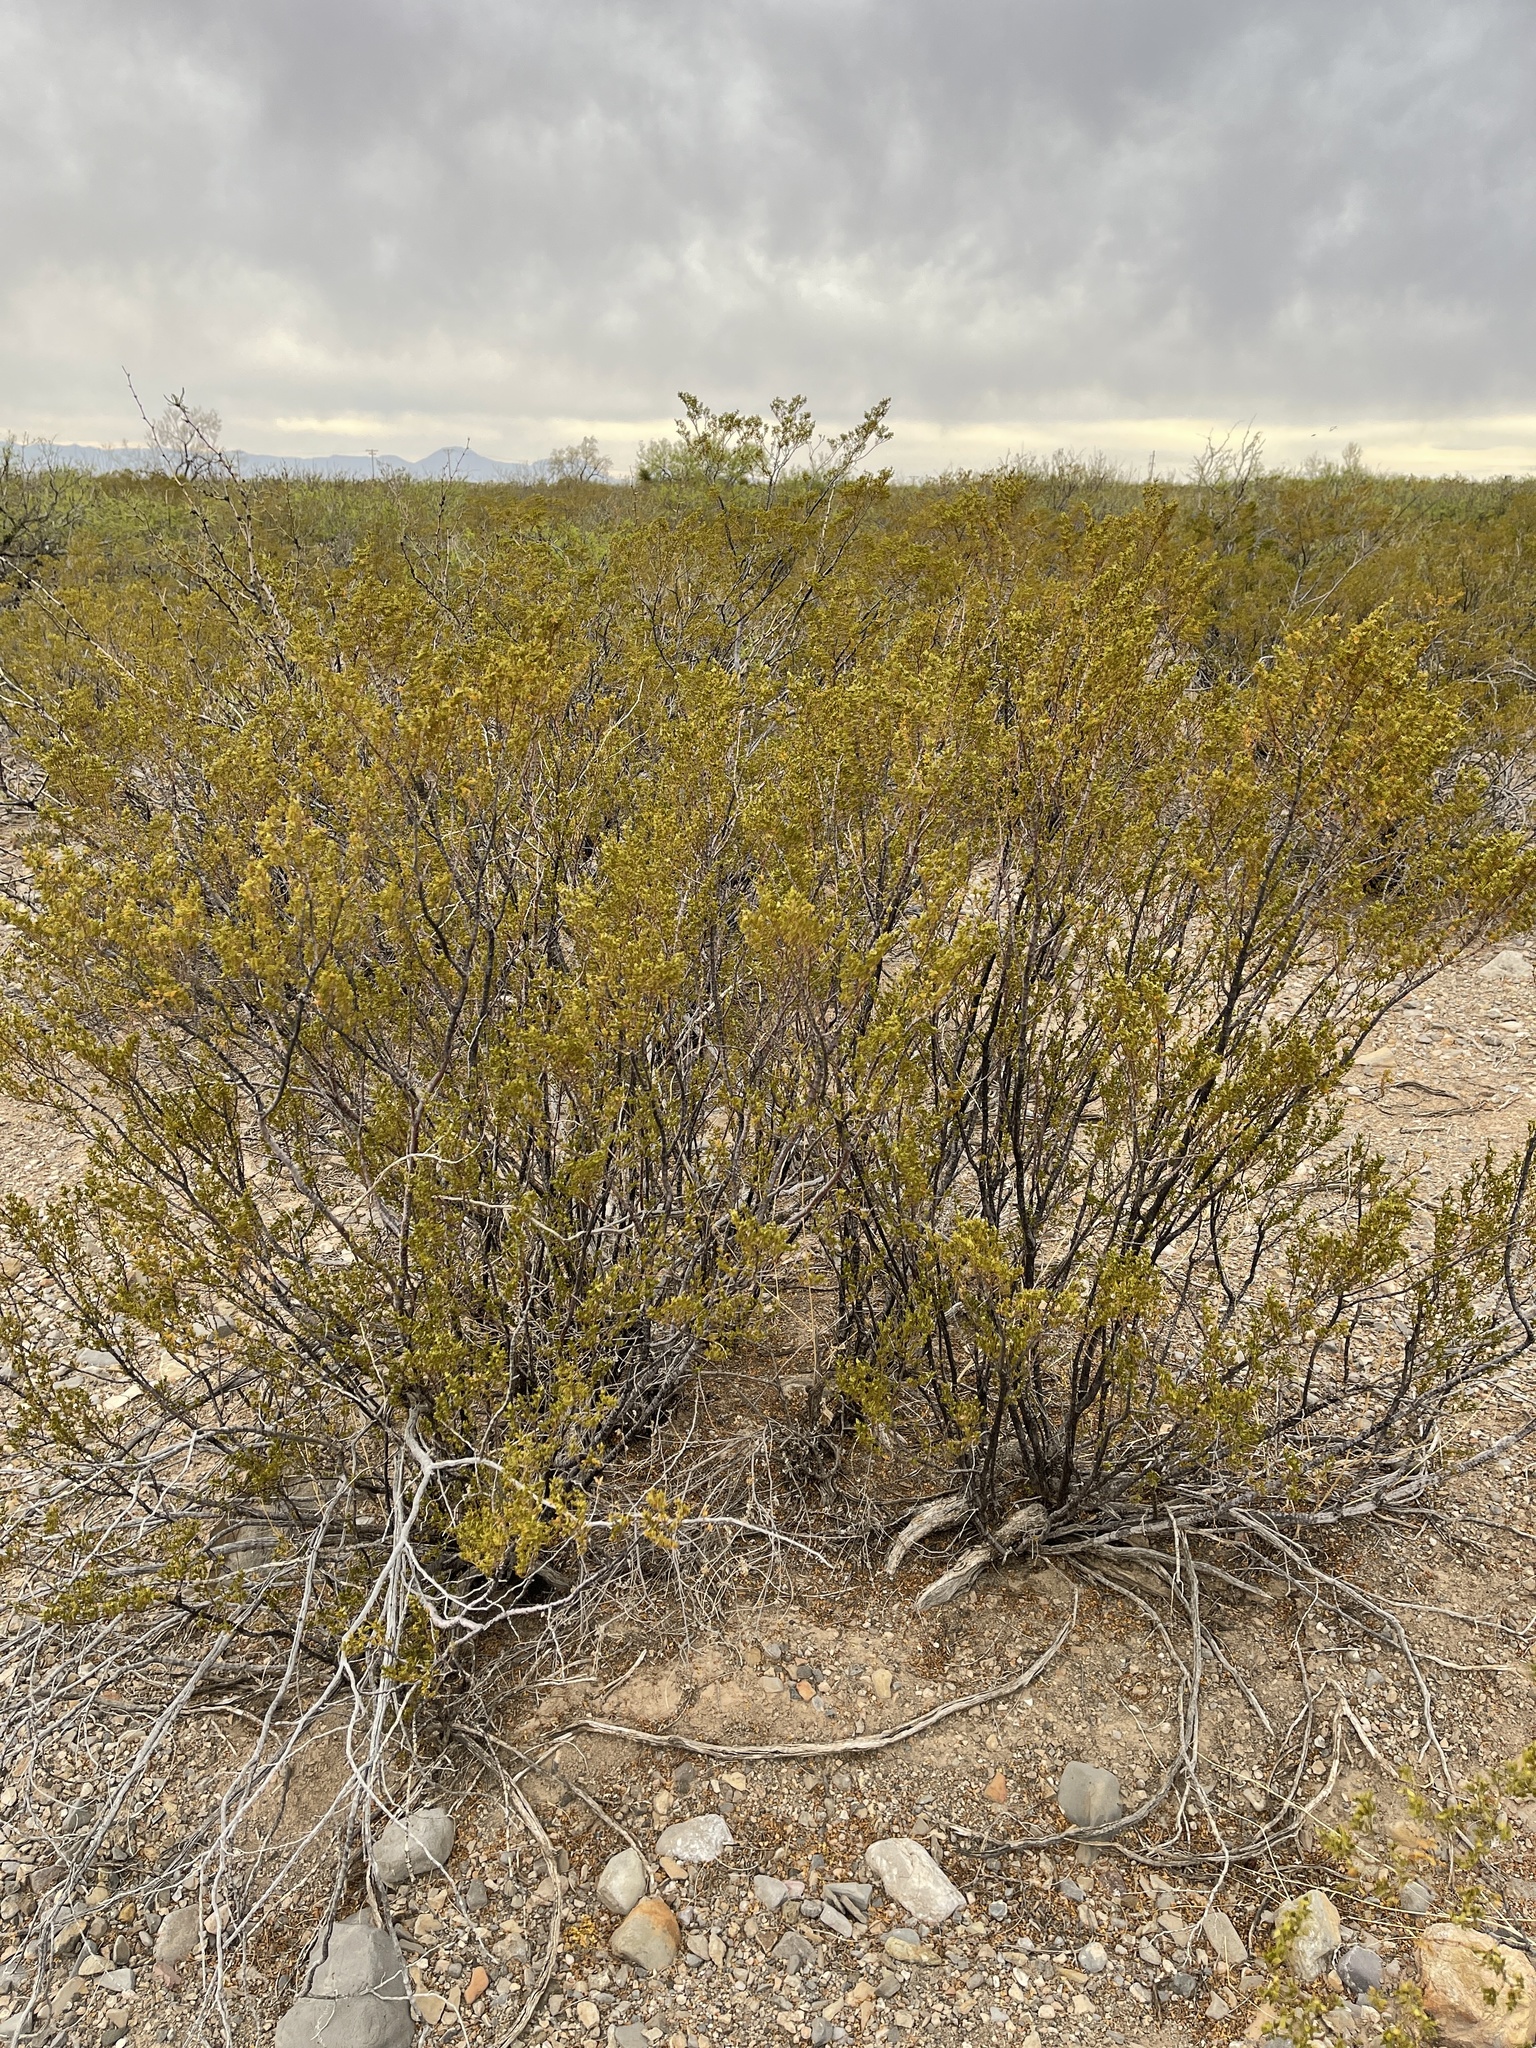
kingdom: Plantae
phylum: Tracheophyta
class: Magnoliopsida
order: Zygophyllales
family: Zygophyllaceae
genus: Larrea
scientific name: Larrea tridentata
